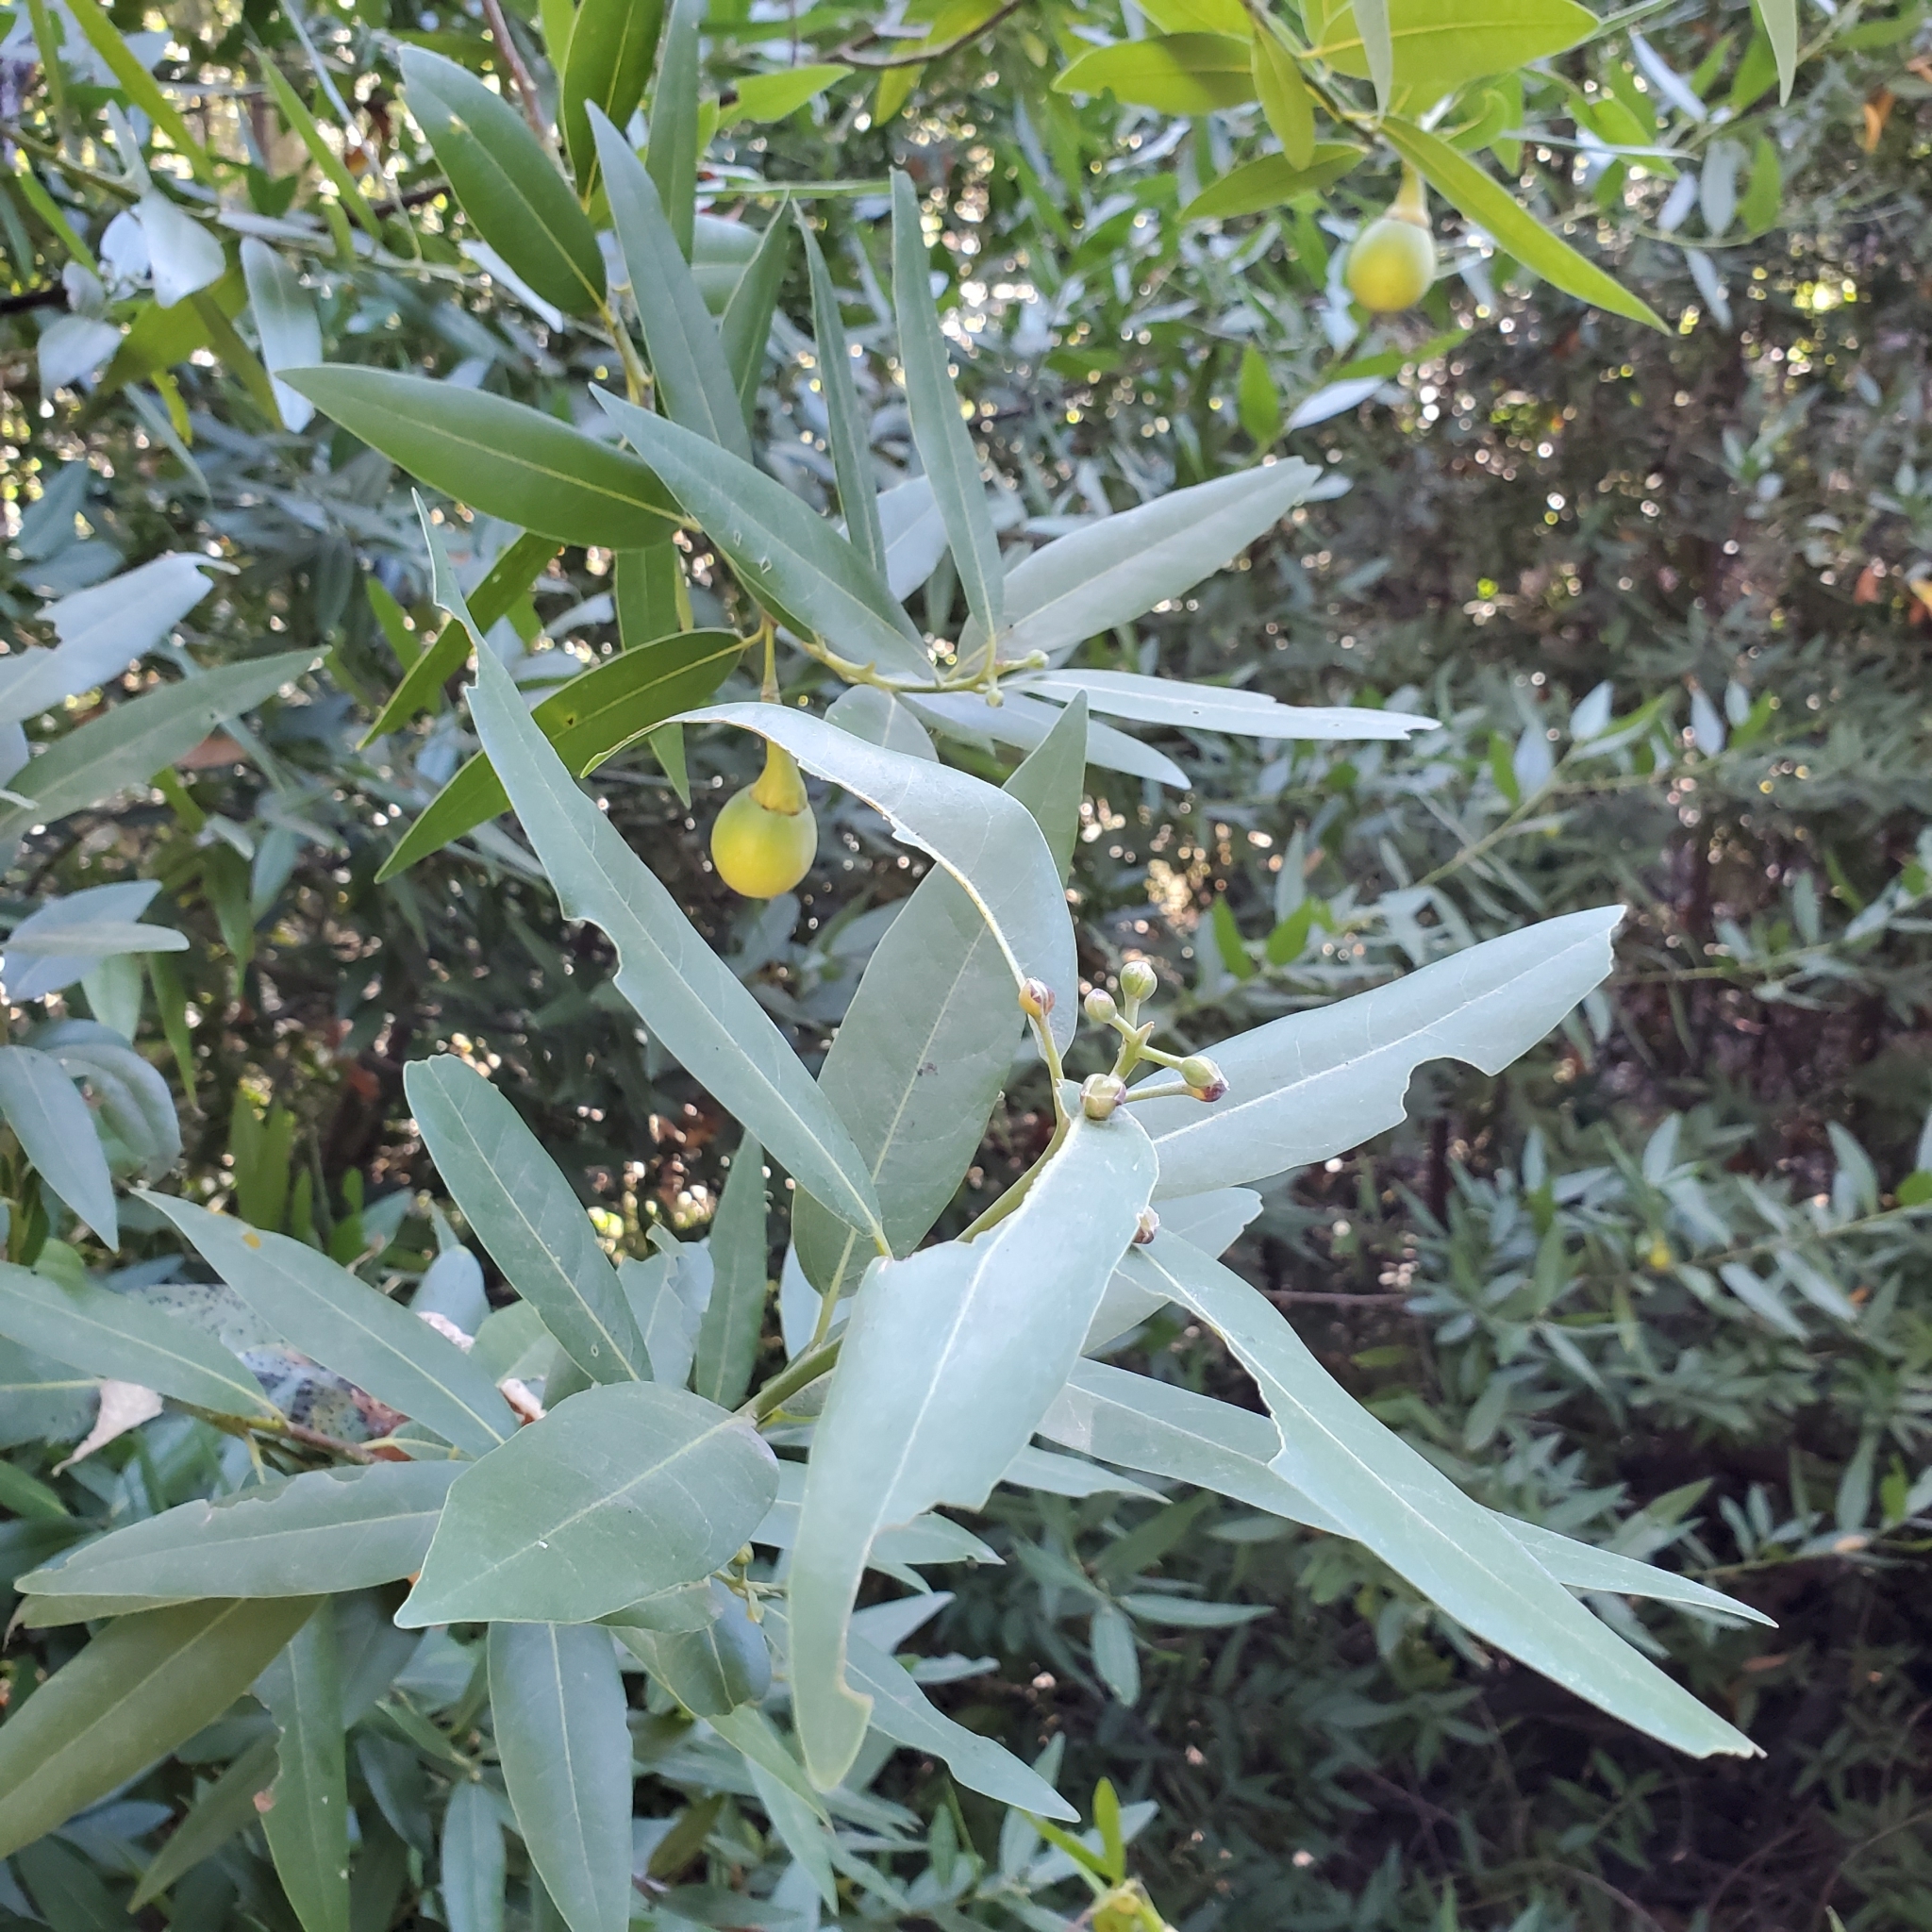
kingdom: Plantae
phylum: Tracheophyta
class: Magnoliopsida
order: Laurales
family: Lauraceae
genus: Umbellularia
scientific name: Umbellularia californica
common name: California bay
